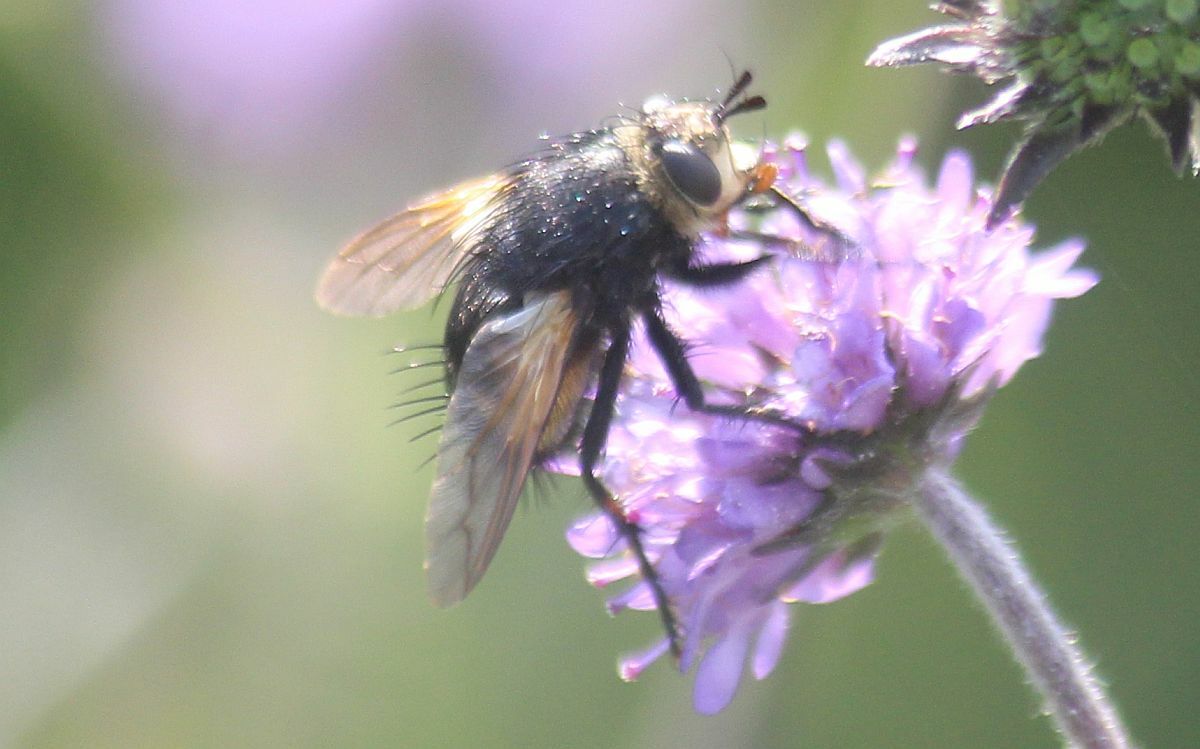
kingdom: Animalia
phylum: Arthropoda
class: Insecta
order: Diptera
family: Tachinidae
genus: Nowickia
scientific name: Nowickia ferox
